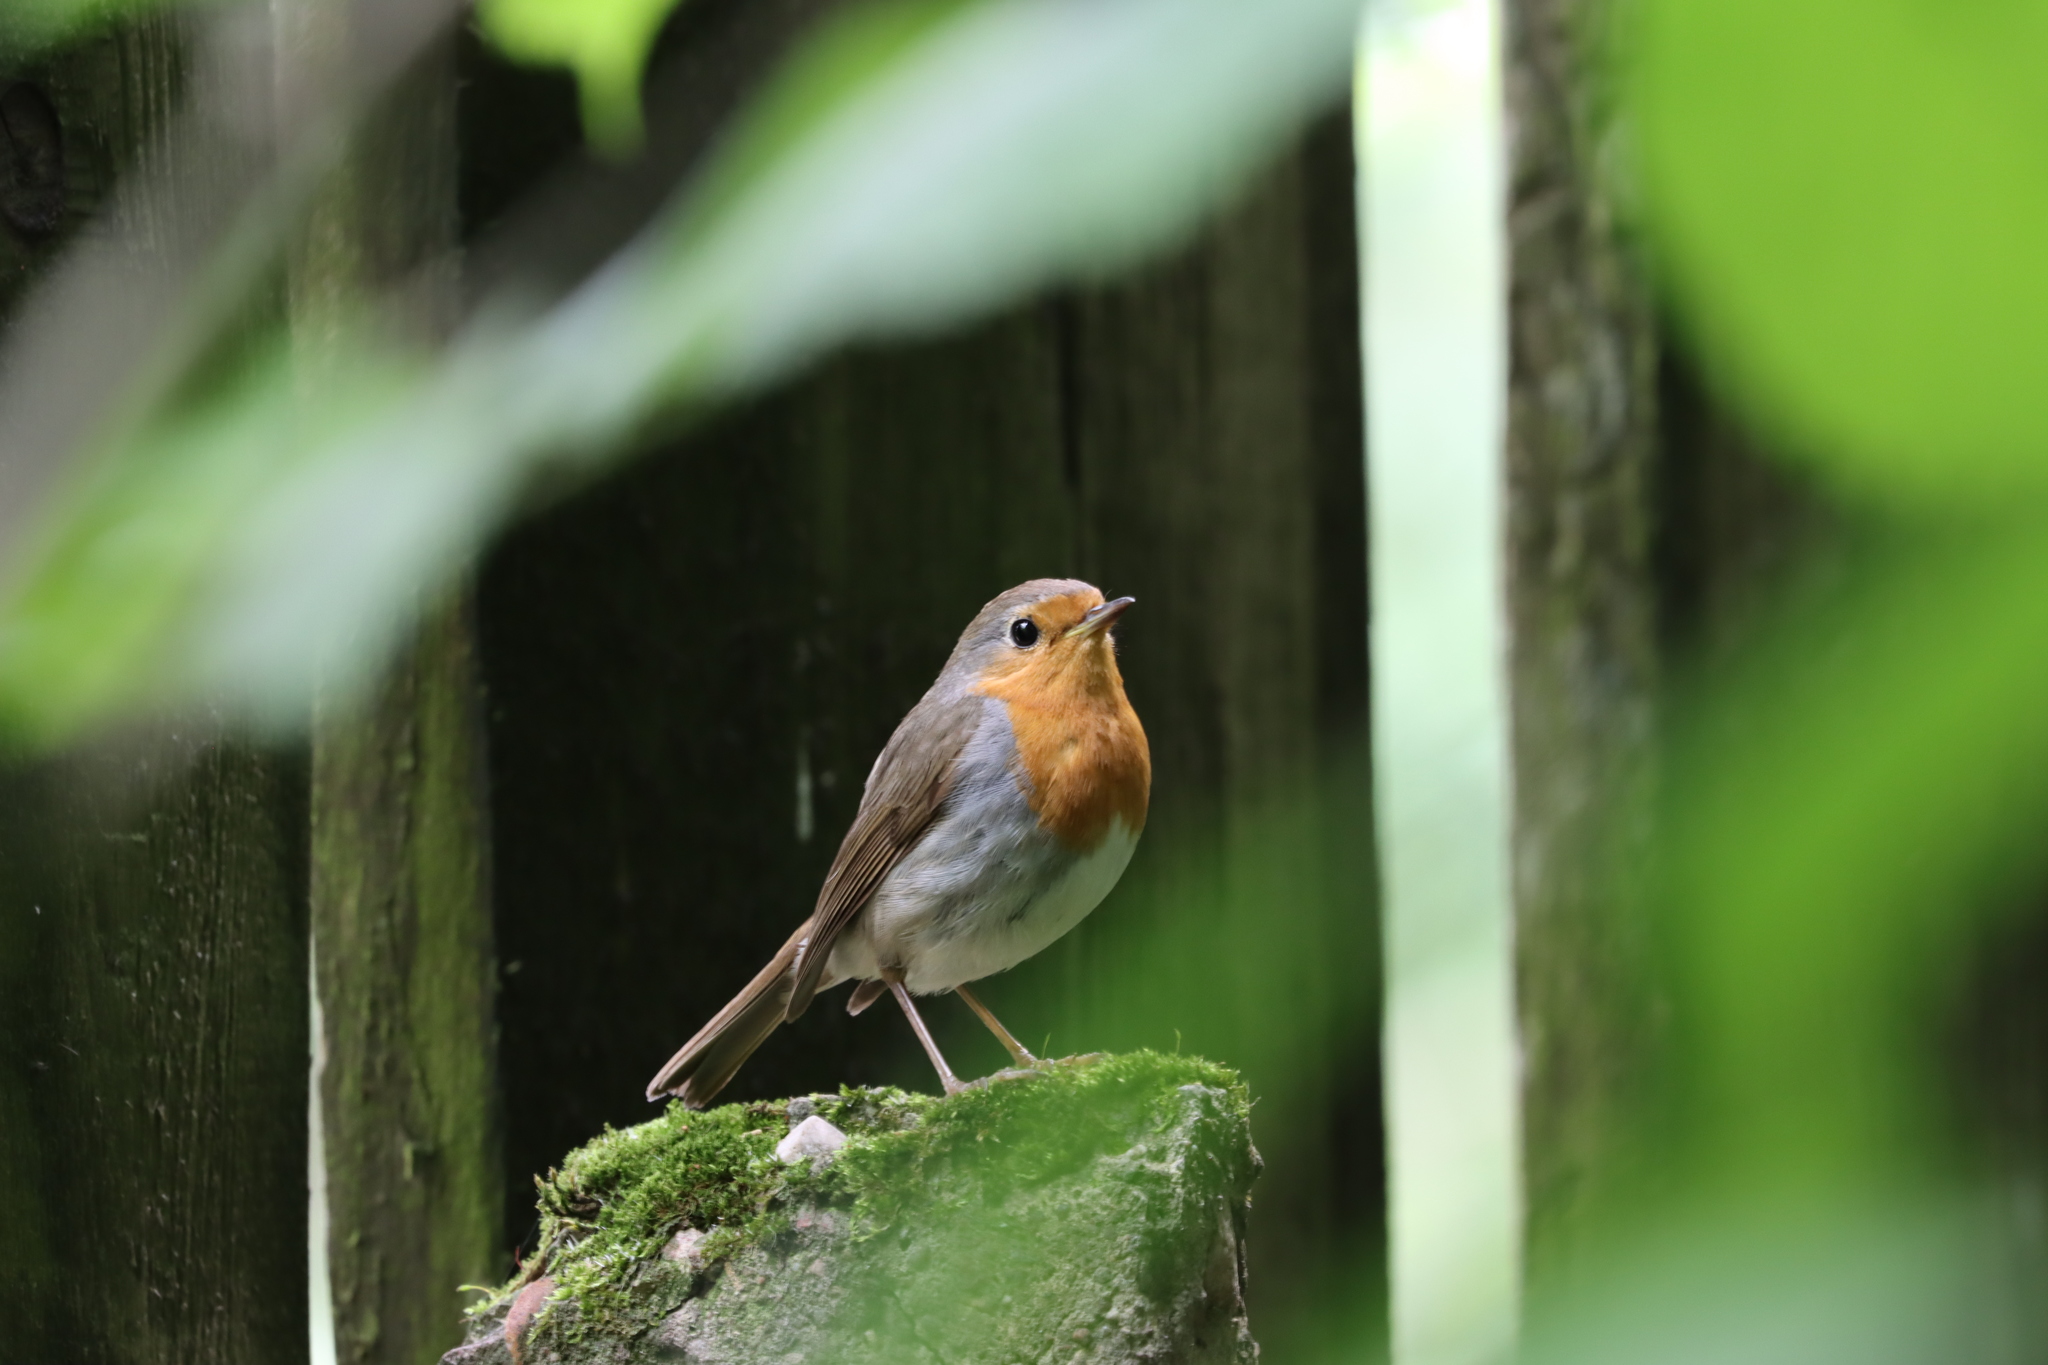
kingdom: Animalia
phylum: Chordata
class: Aves
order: Passeriformes
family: Muscicapidae
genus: Erithacus
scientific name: Erithacus rubecula
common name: European robin
